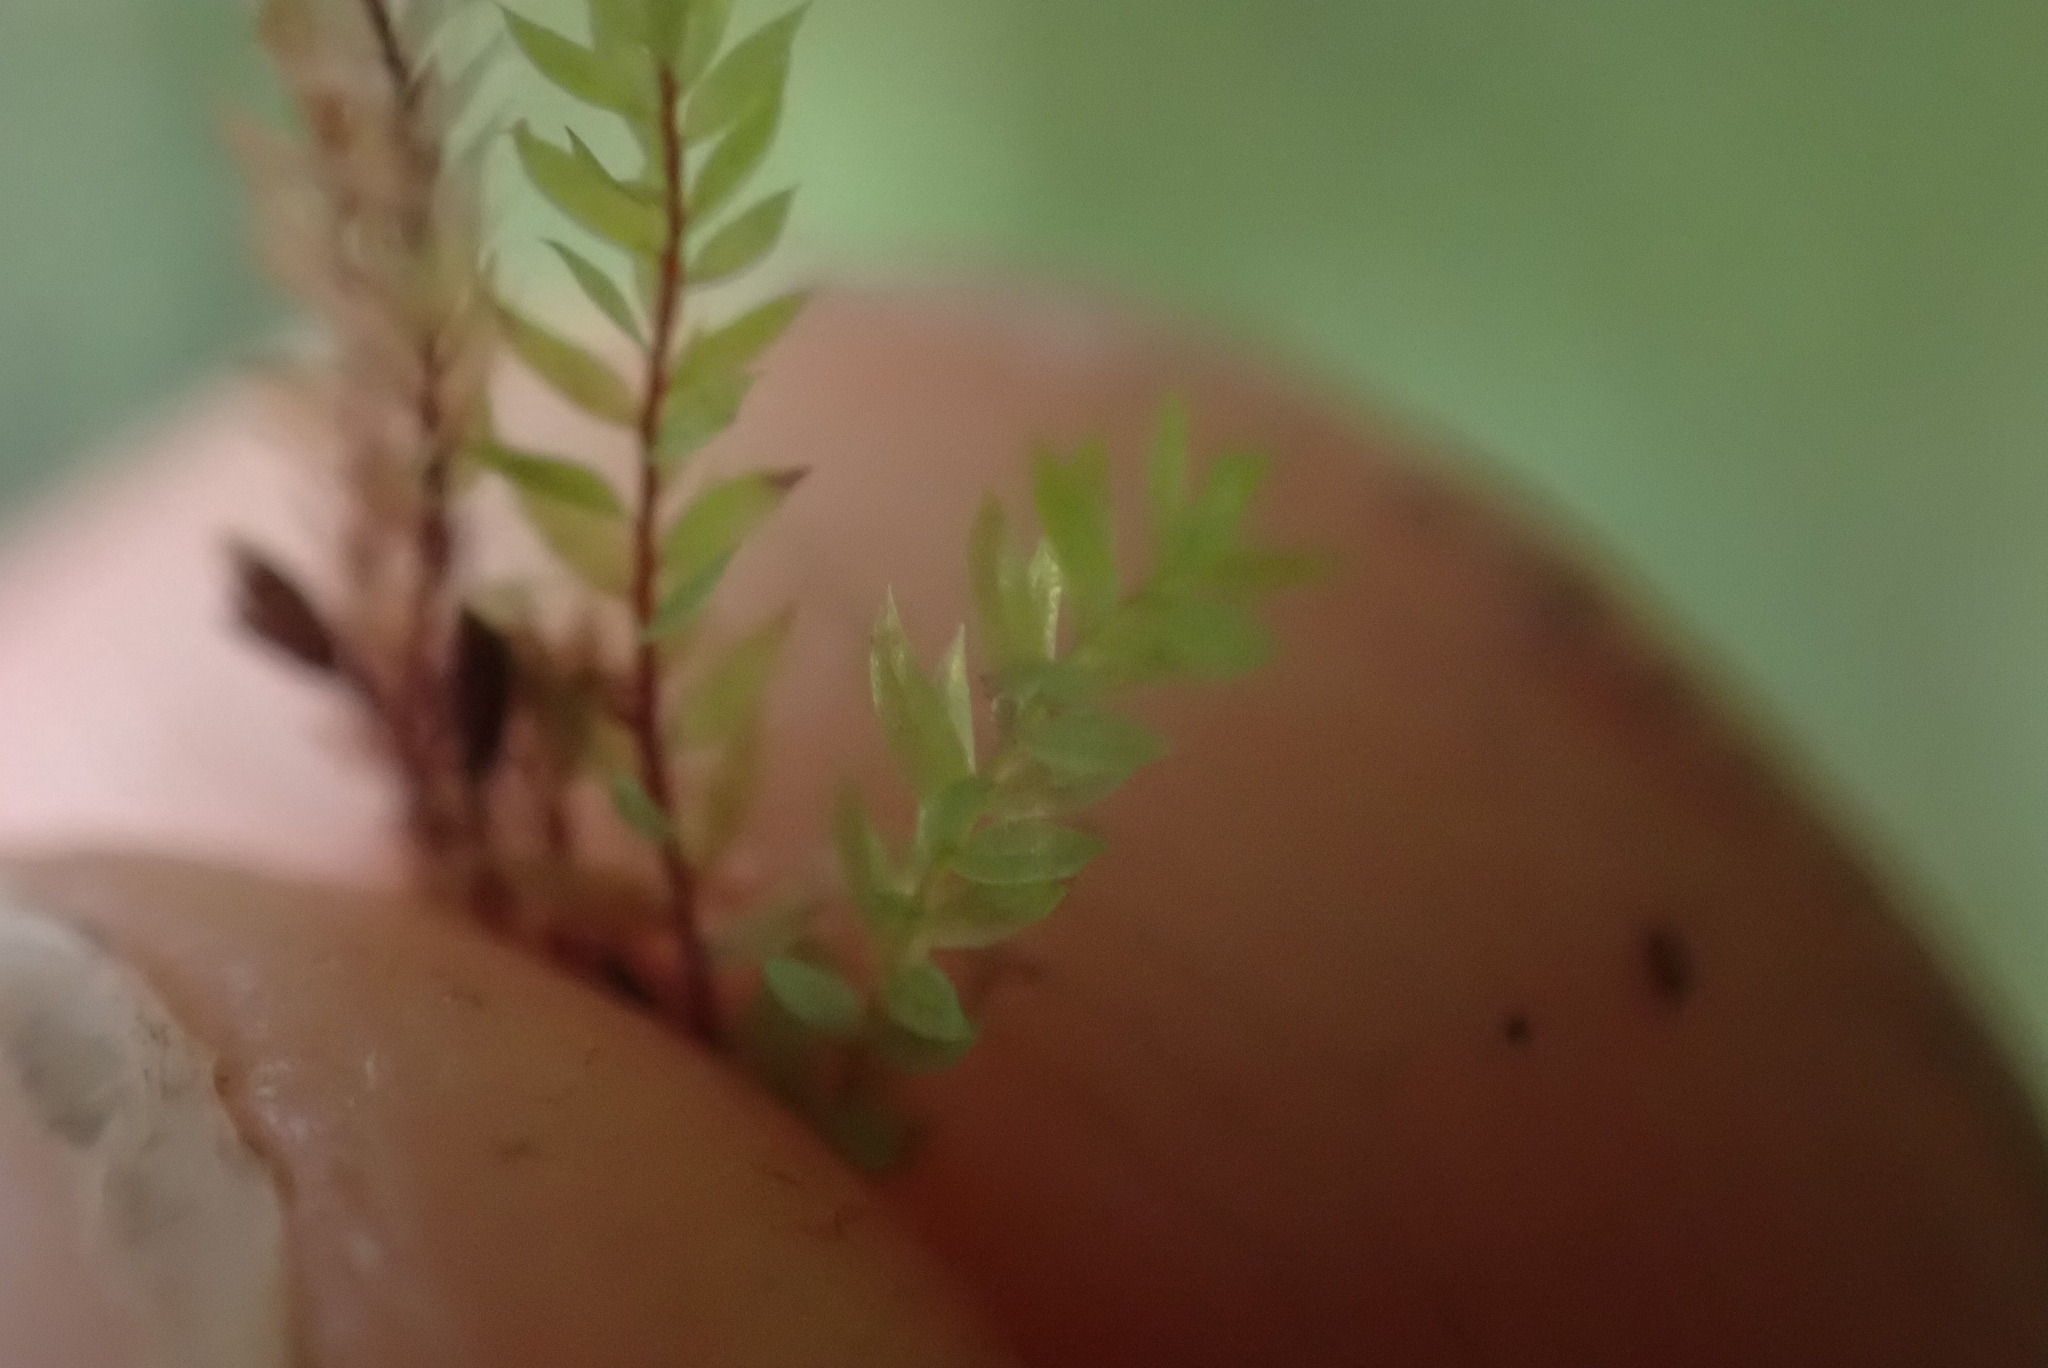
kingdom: Plantae
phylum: Bryophyta
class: Bryopsida
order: Bryales
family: Mniaceae
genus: Pohlia
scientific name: Pohlia cruda
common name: Opal nodding moss
